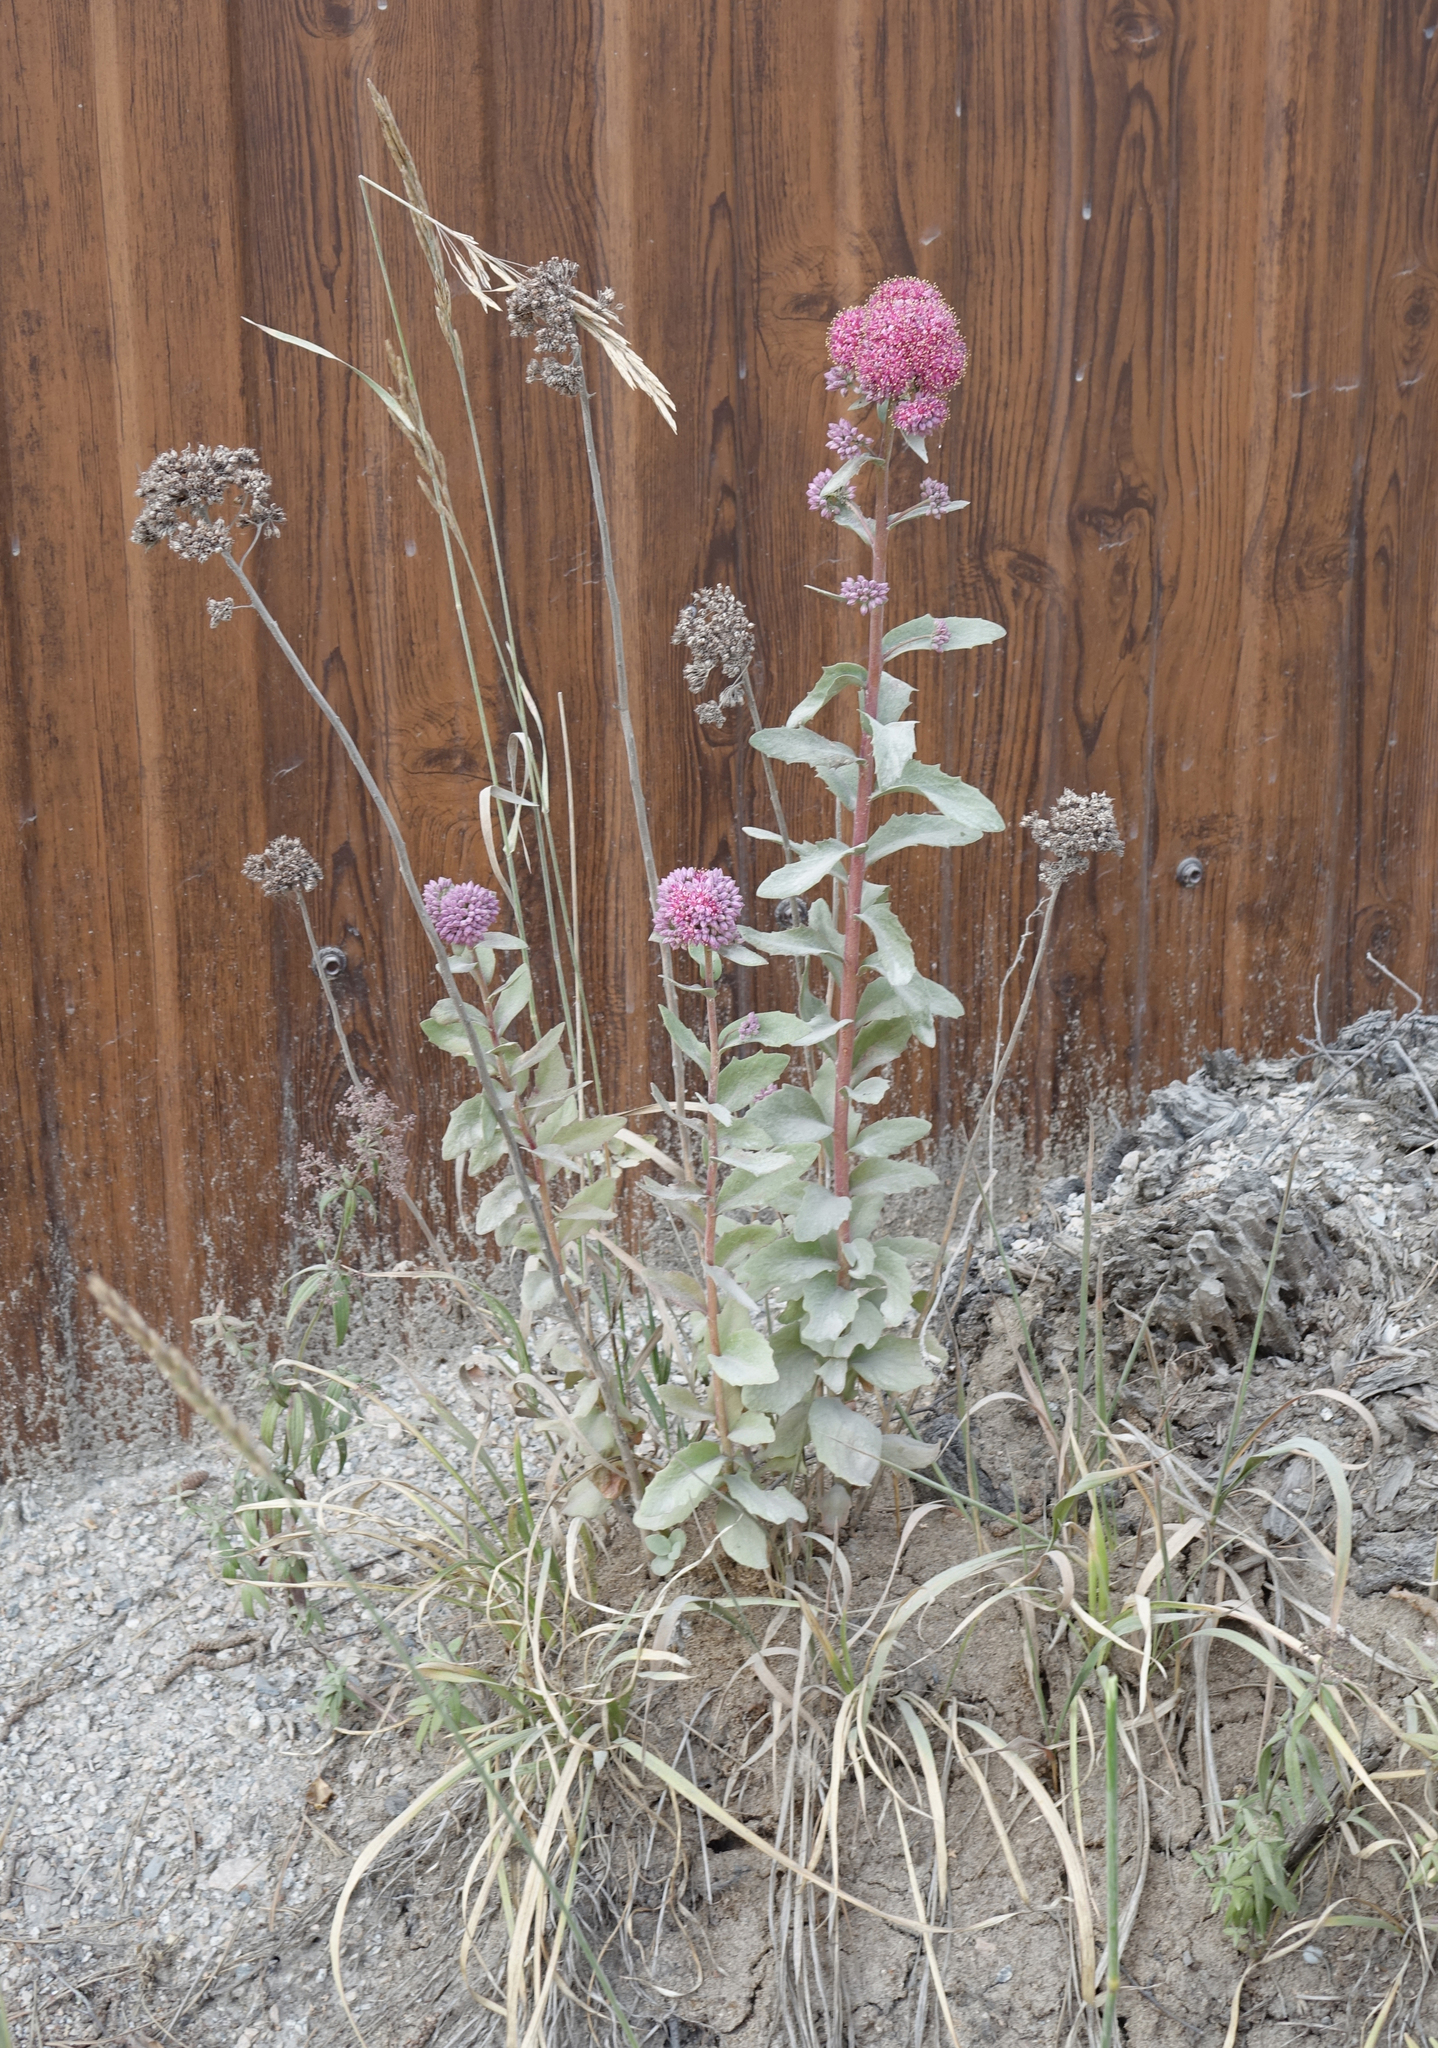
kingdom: Plantae
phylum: Tracheophyta
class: Magnoliopsida
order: Saxifragales
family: Crassulaceae
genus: Hylotelephium
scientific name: Hylotelephium telephium
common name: Live-forever
